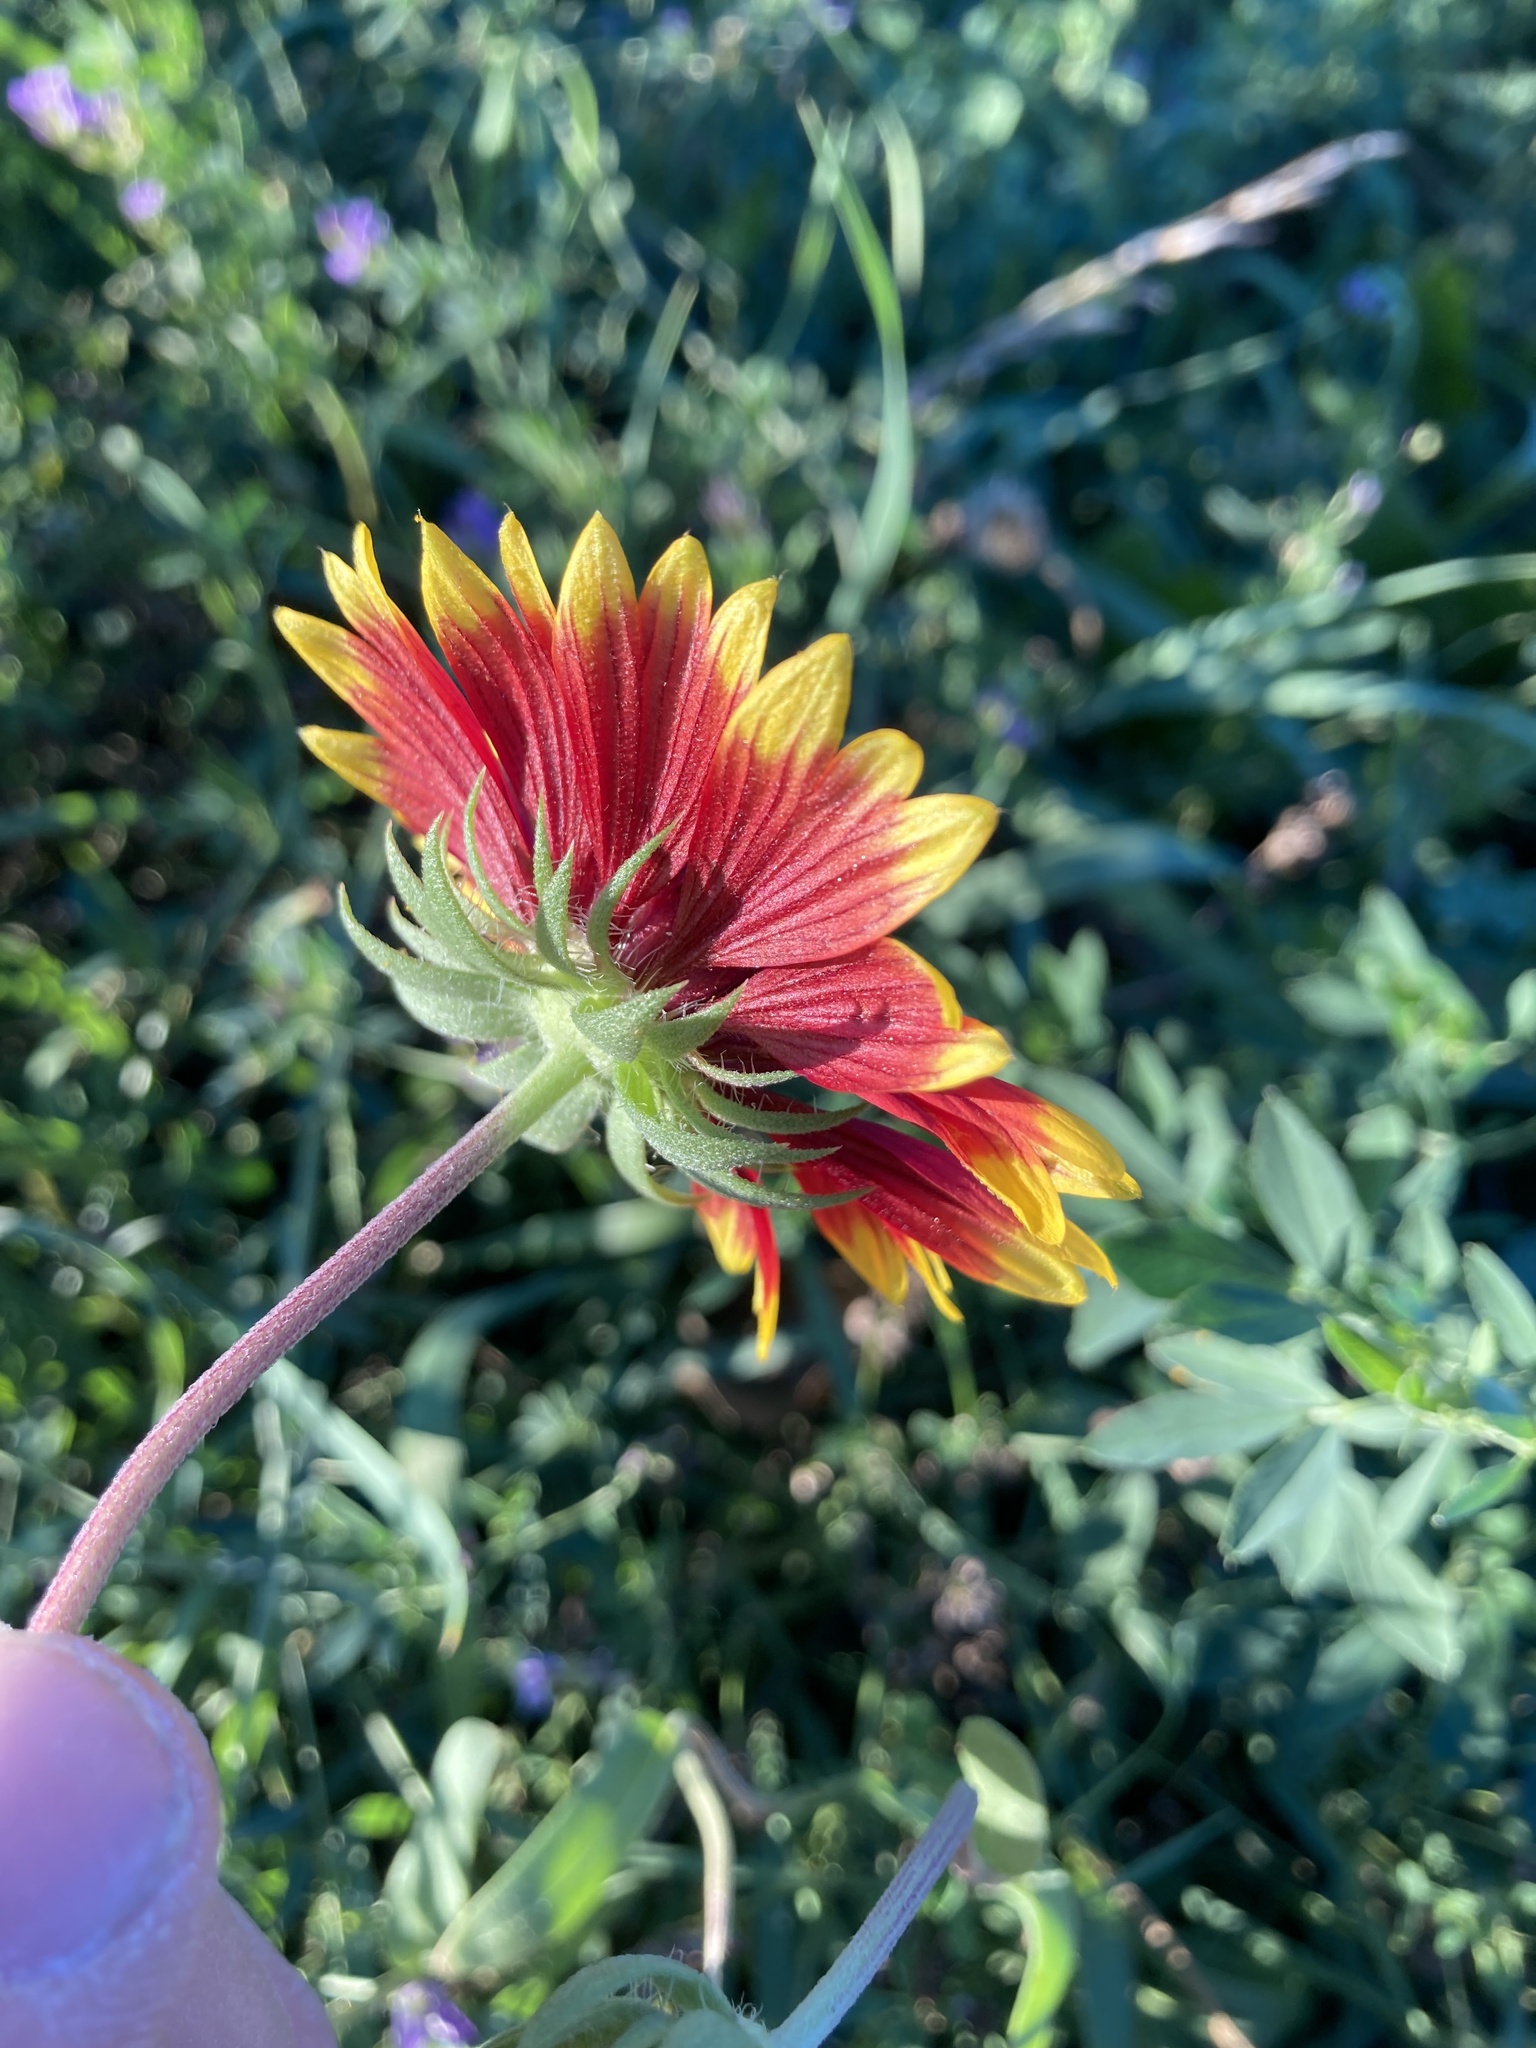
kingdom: Plantae
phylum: Tracheophyta
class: Magnoliopsida
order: Asterales
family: Asteraceae
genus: Gaillardia
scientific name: Gaillardia pulchella
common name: Firewheel
